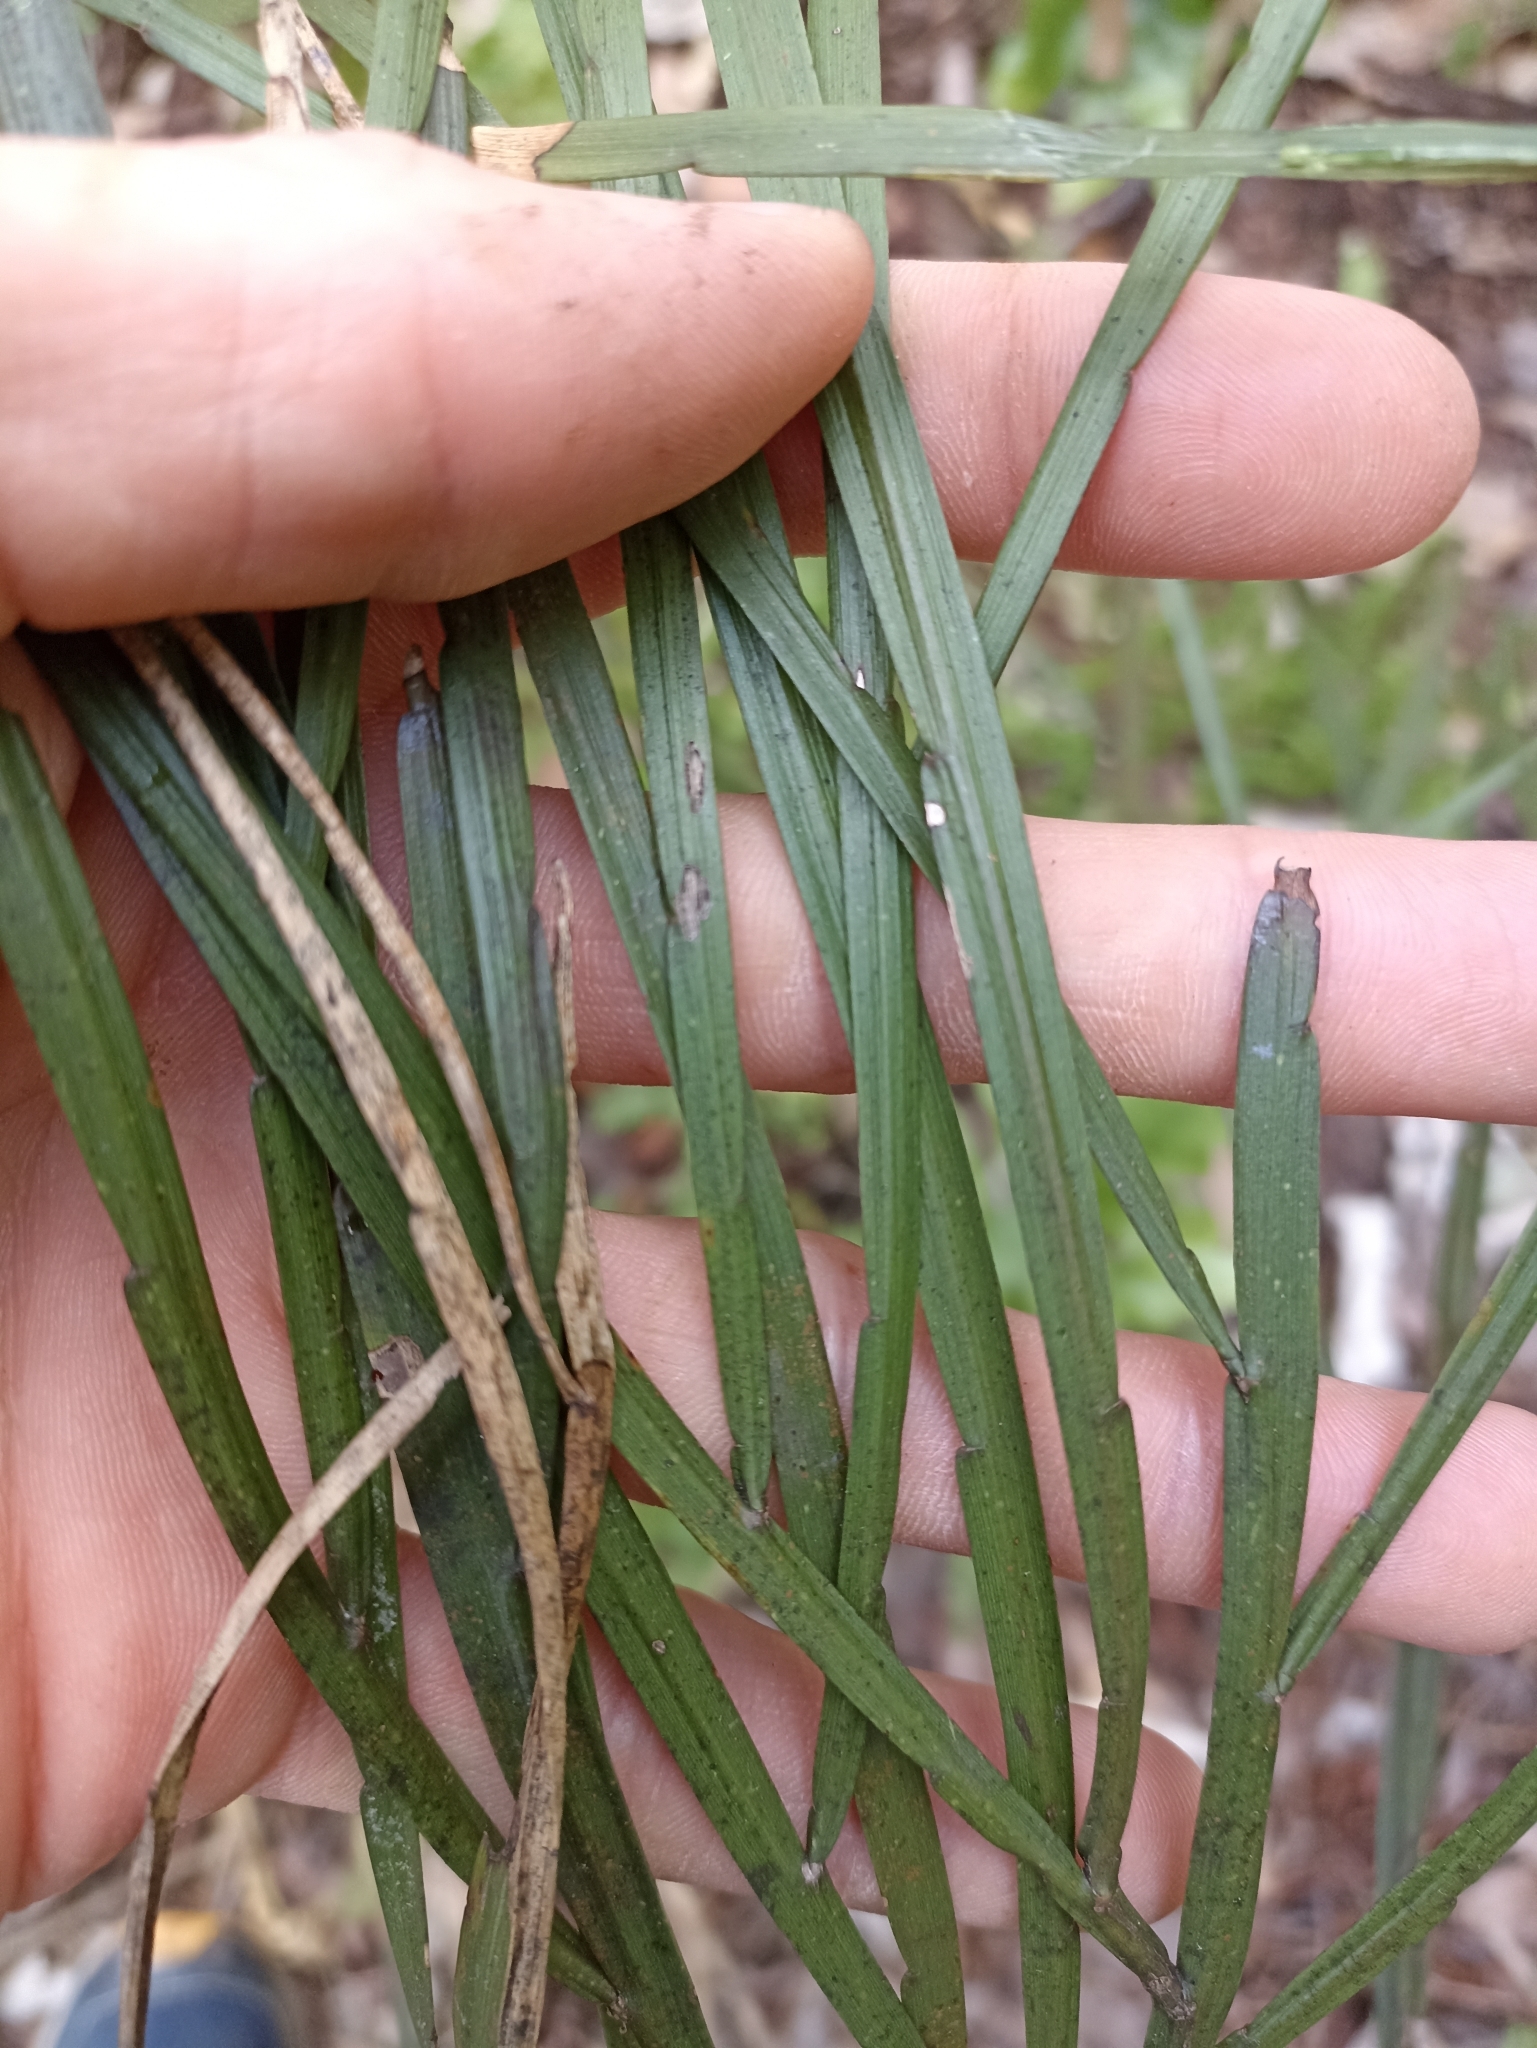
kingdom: Plantae
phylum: Tracheophyta
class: Magnoliopsida
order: Fabales
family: Fabaceae
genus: Carmichaelia
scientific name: Carmichaelia australis
